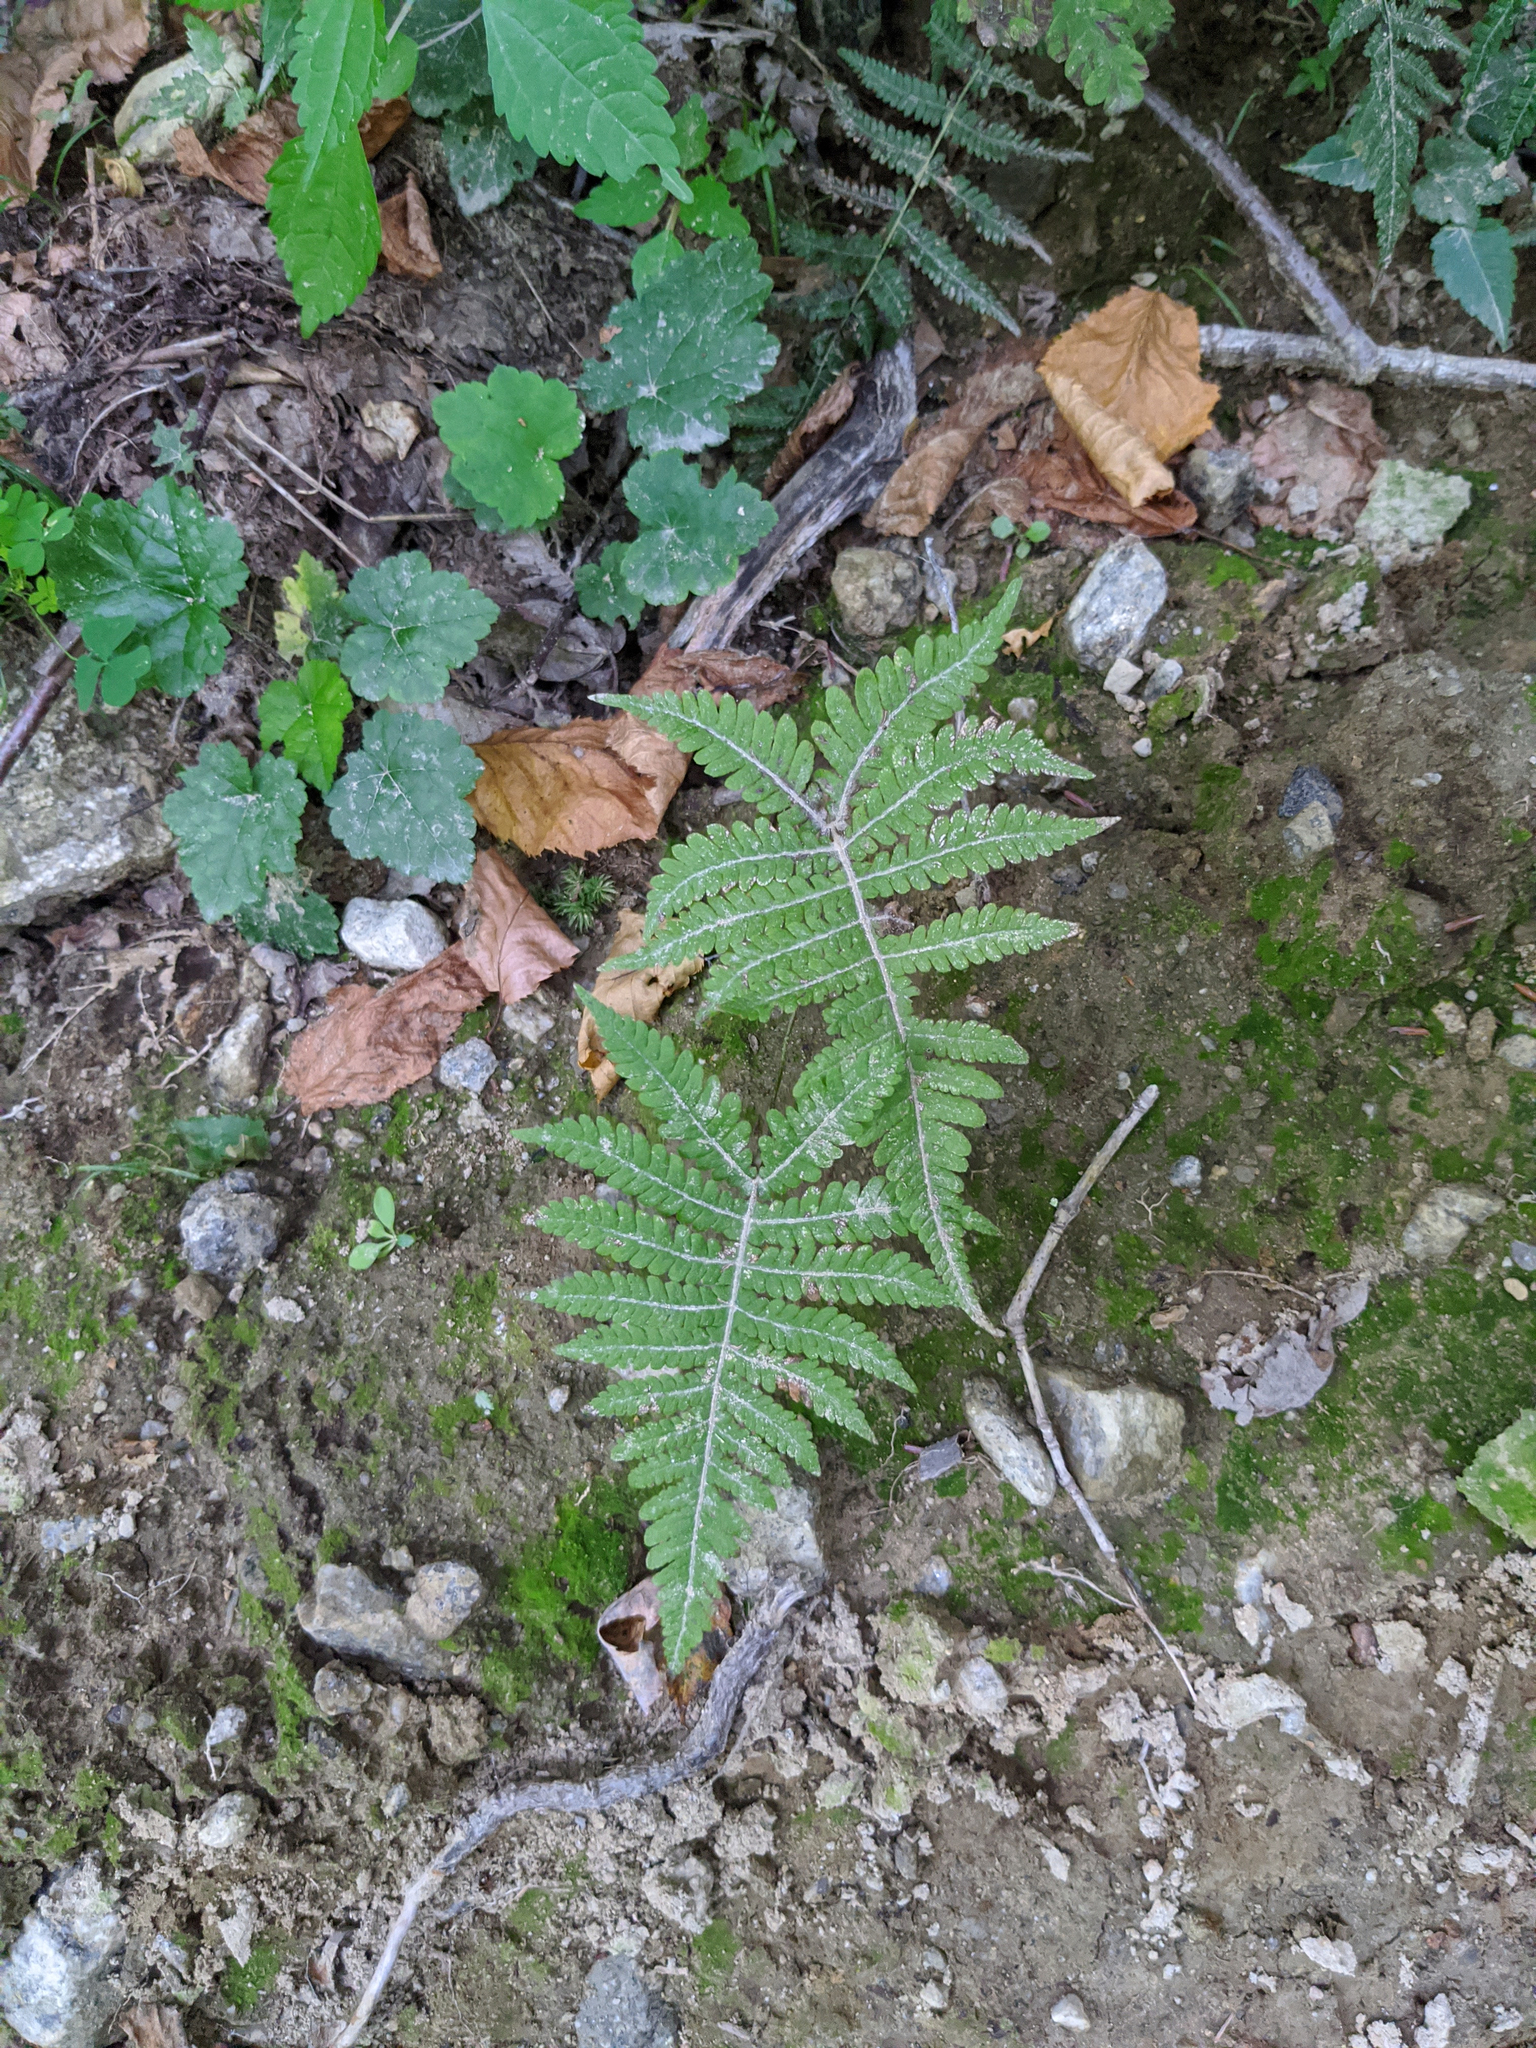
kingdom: Plantae
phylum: Tracheophyta
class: Magnoliopsida
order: Saxifragales
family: Saxifragaceae
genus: Tiarella
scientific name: Tiarella stolonifera
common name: Stoloniferous foamflower
